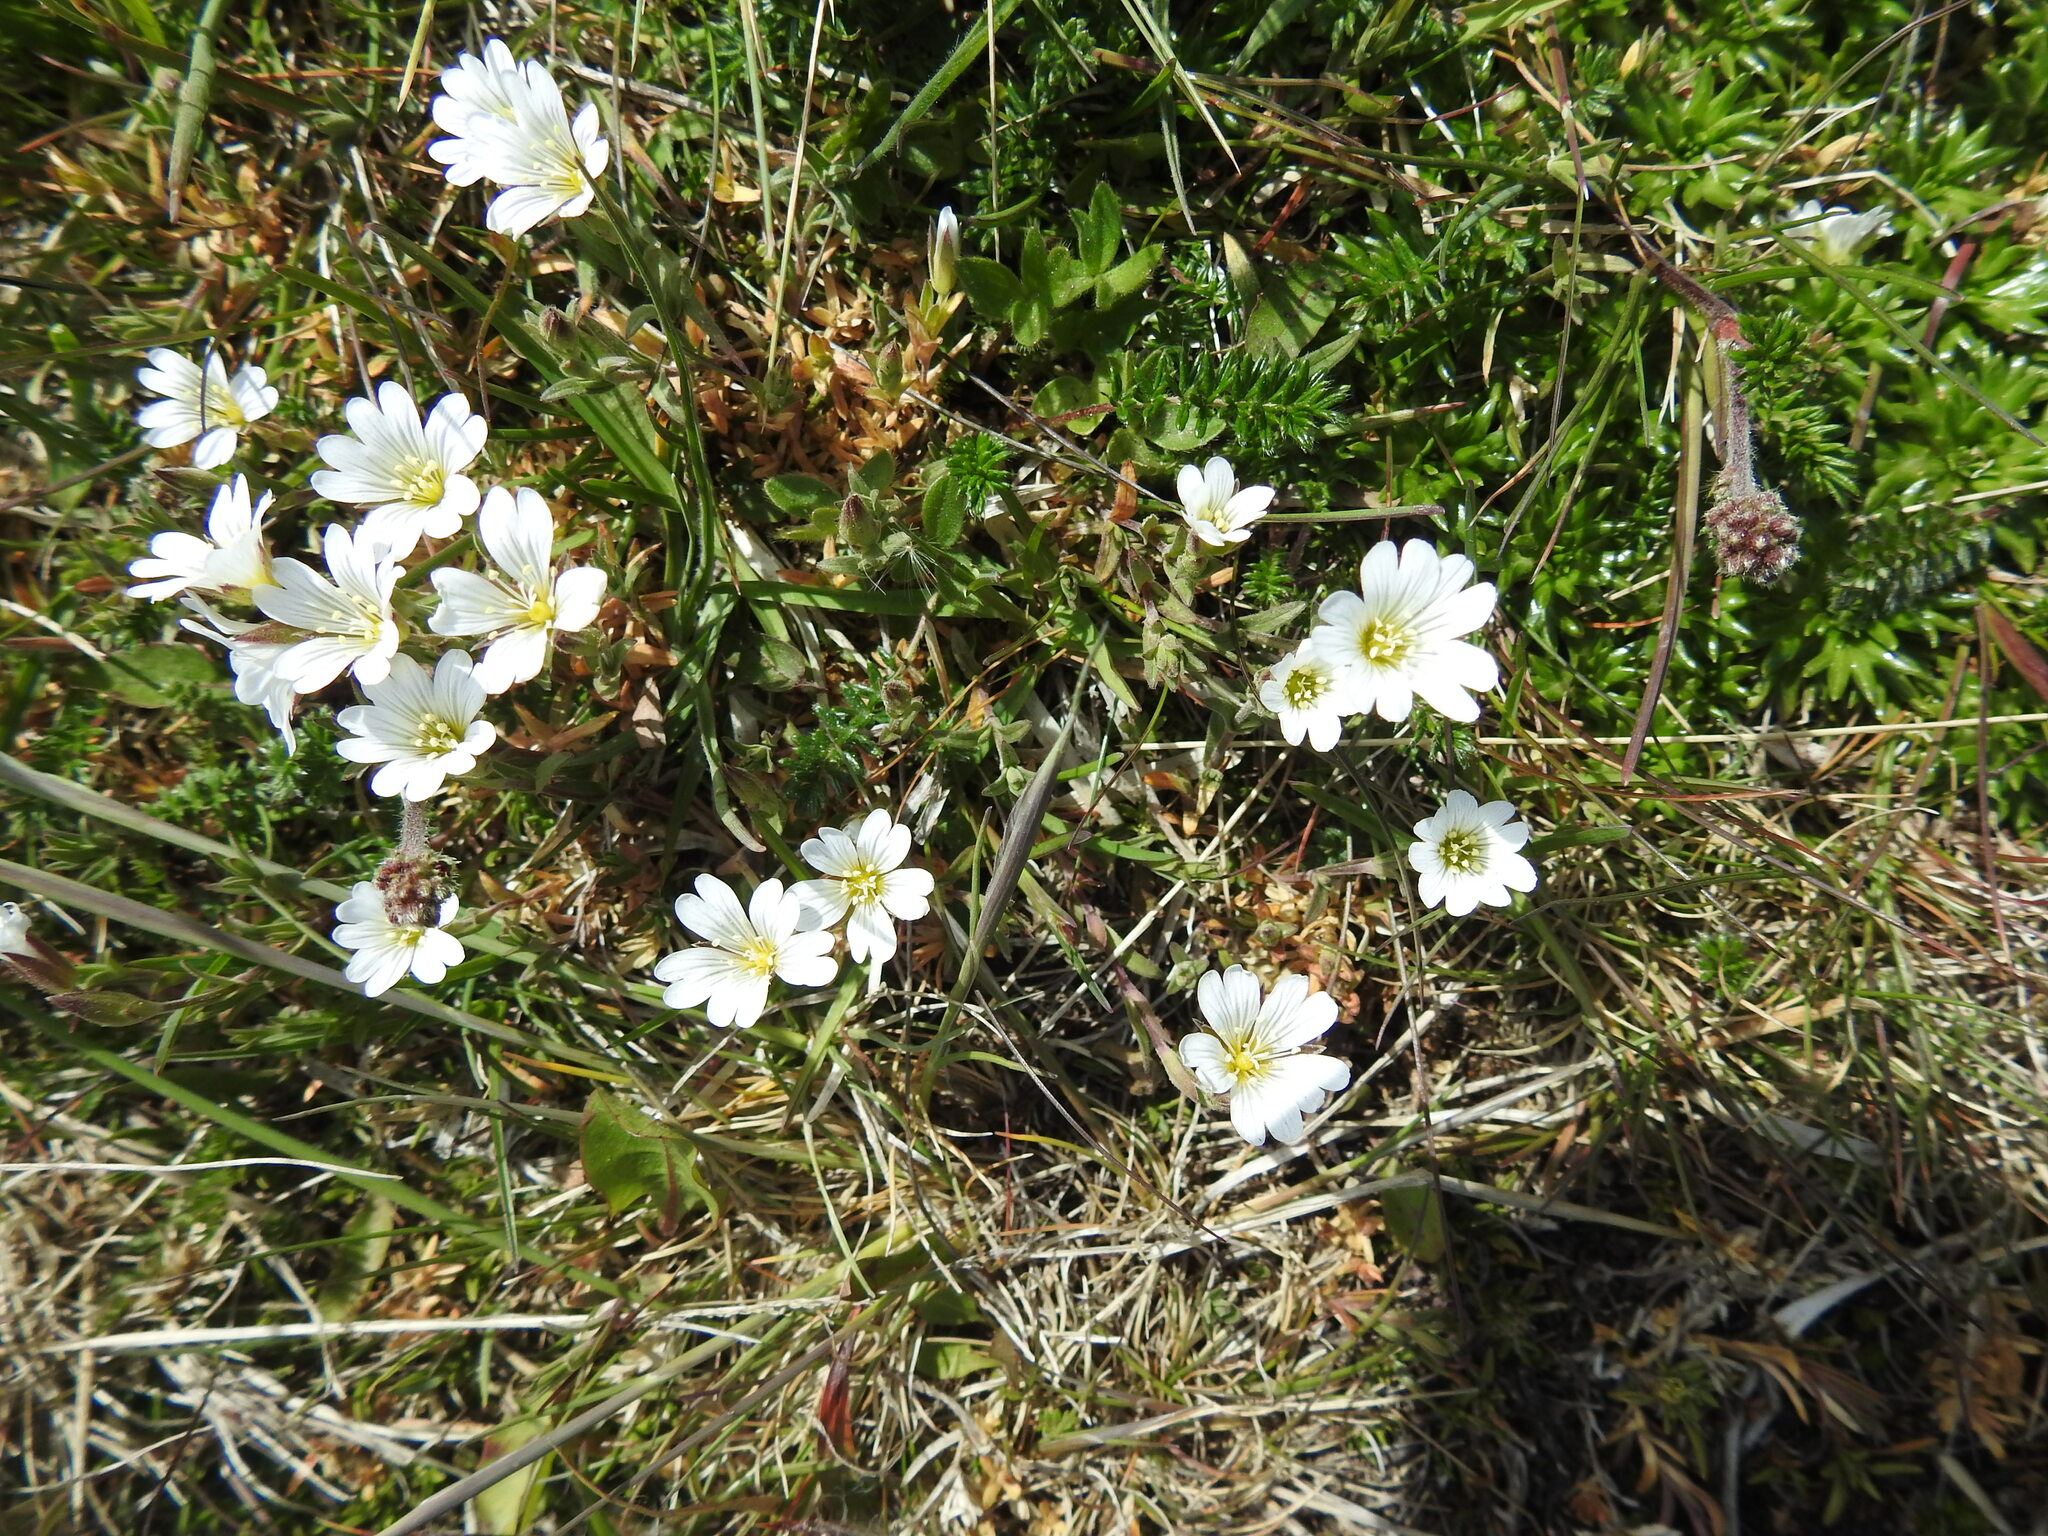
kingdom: Plantae
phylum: Tracheophyta
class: Magnoliopsida
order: Caryophyllales
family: Caryophyllaceae
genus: Cerastium
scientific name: Cerastium arvense
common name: Field mouse-ear
